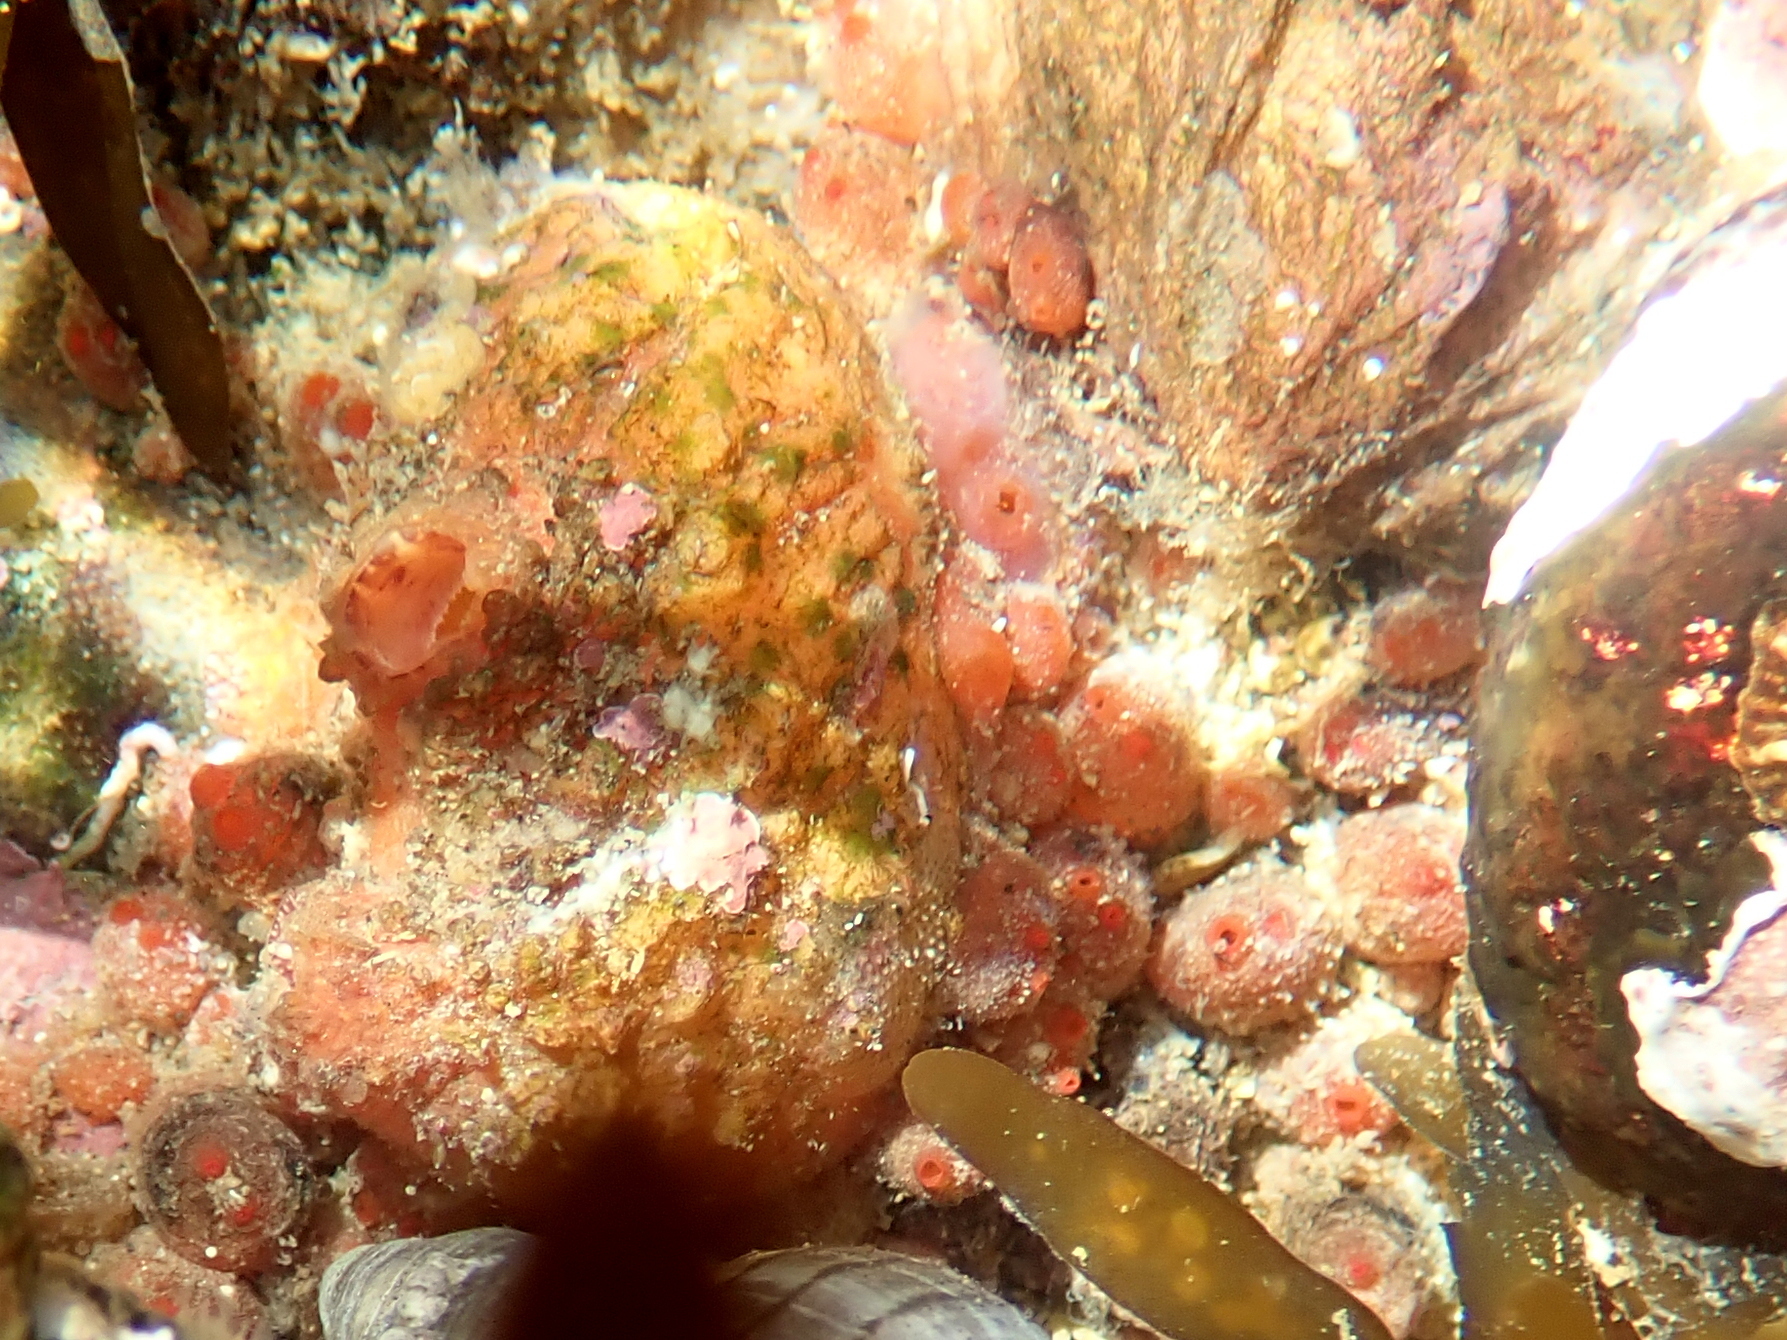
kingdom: Animalia
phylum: Chordata
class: Ascidiacea
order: Stolidobranchia
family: Styelidae
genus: Metandrocarpa
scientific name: Metandrocarpa protostigmatica
